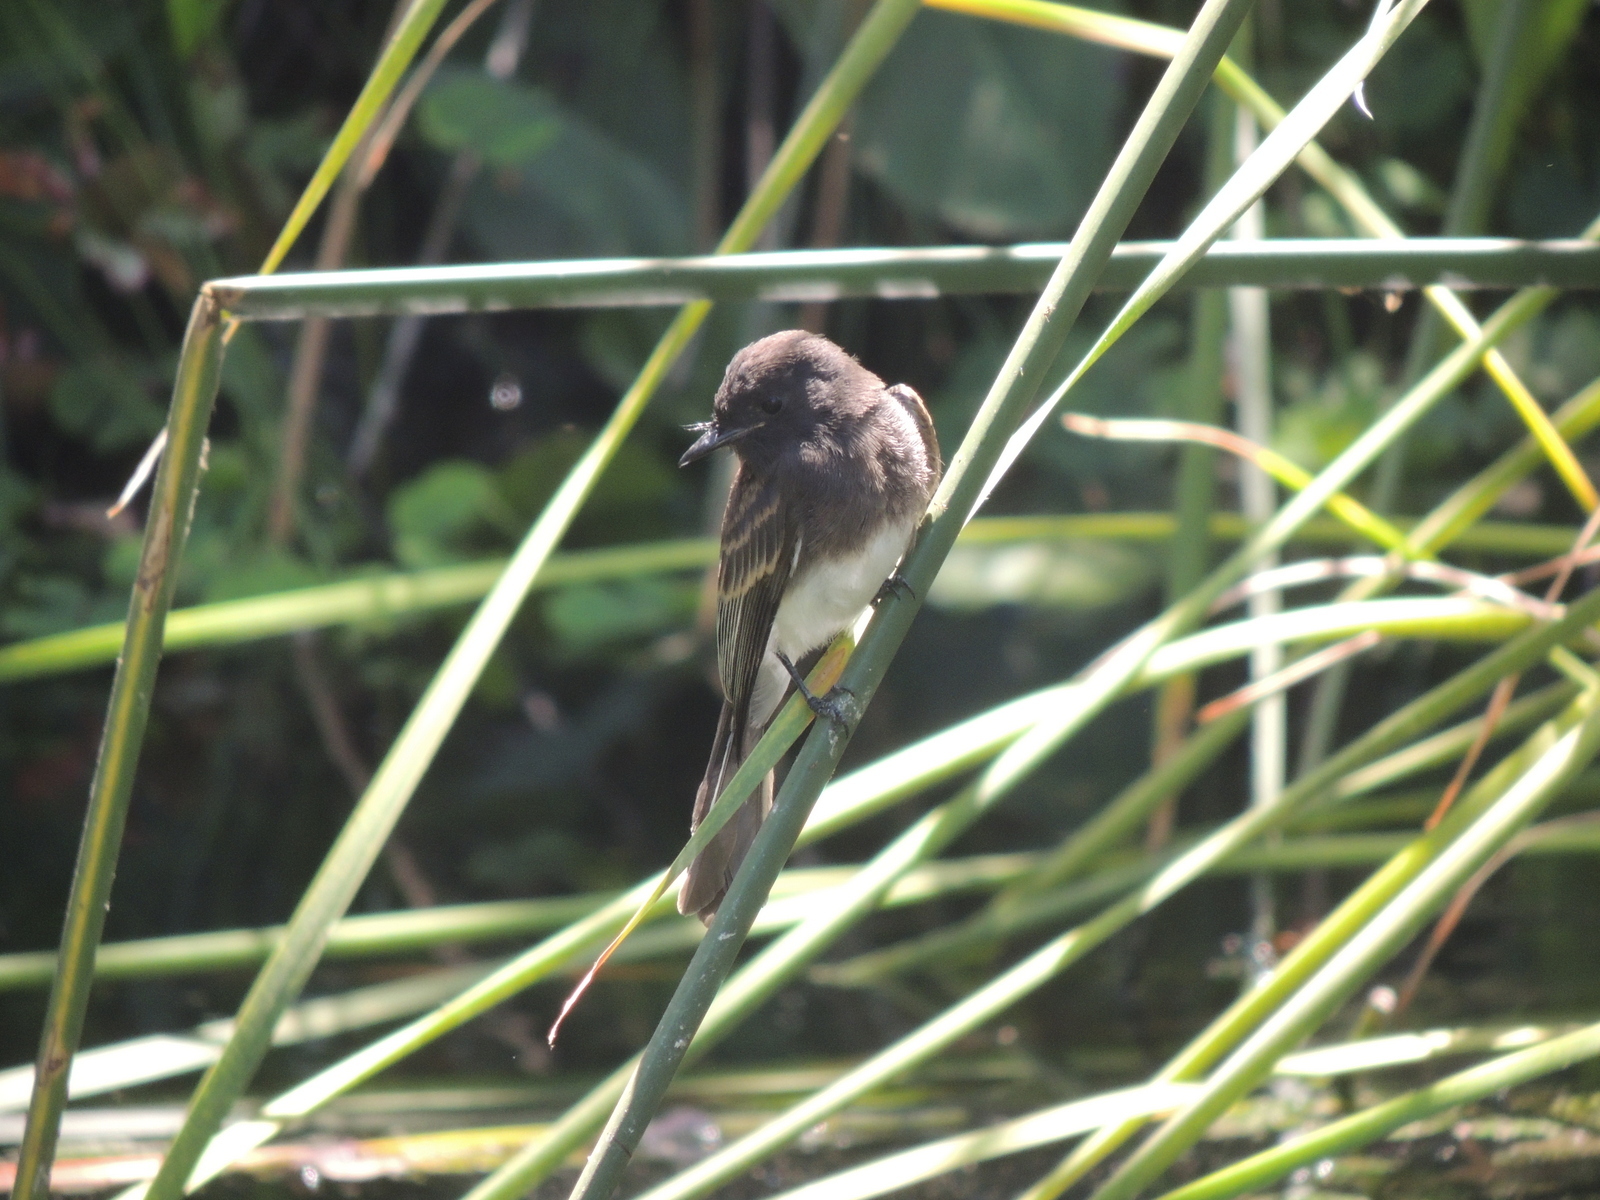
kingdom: Animalia
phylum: Chordata
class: Aves
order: Passeriformes
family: Tyrannidae
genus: Sayornis
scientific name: Sayornis nigricans
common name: Black phoebe
